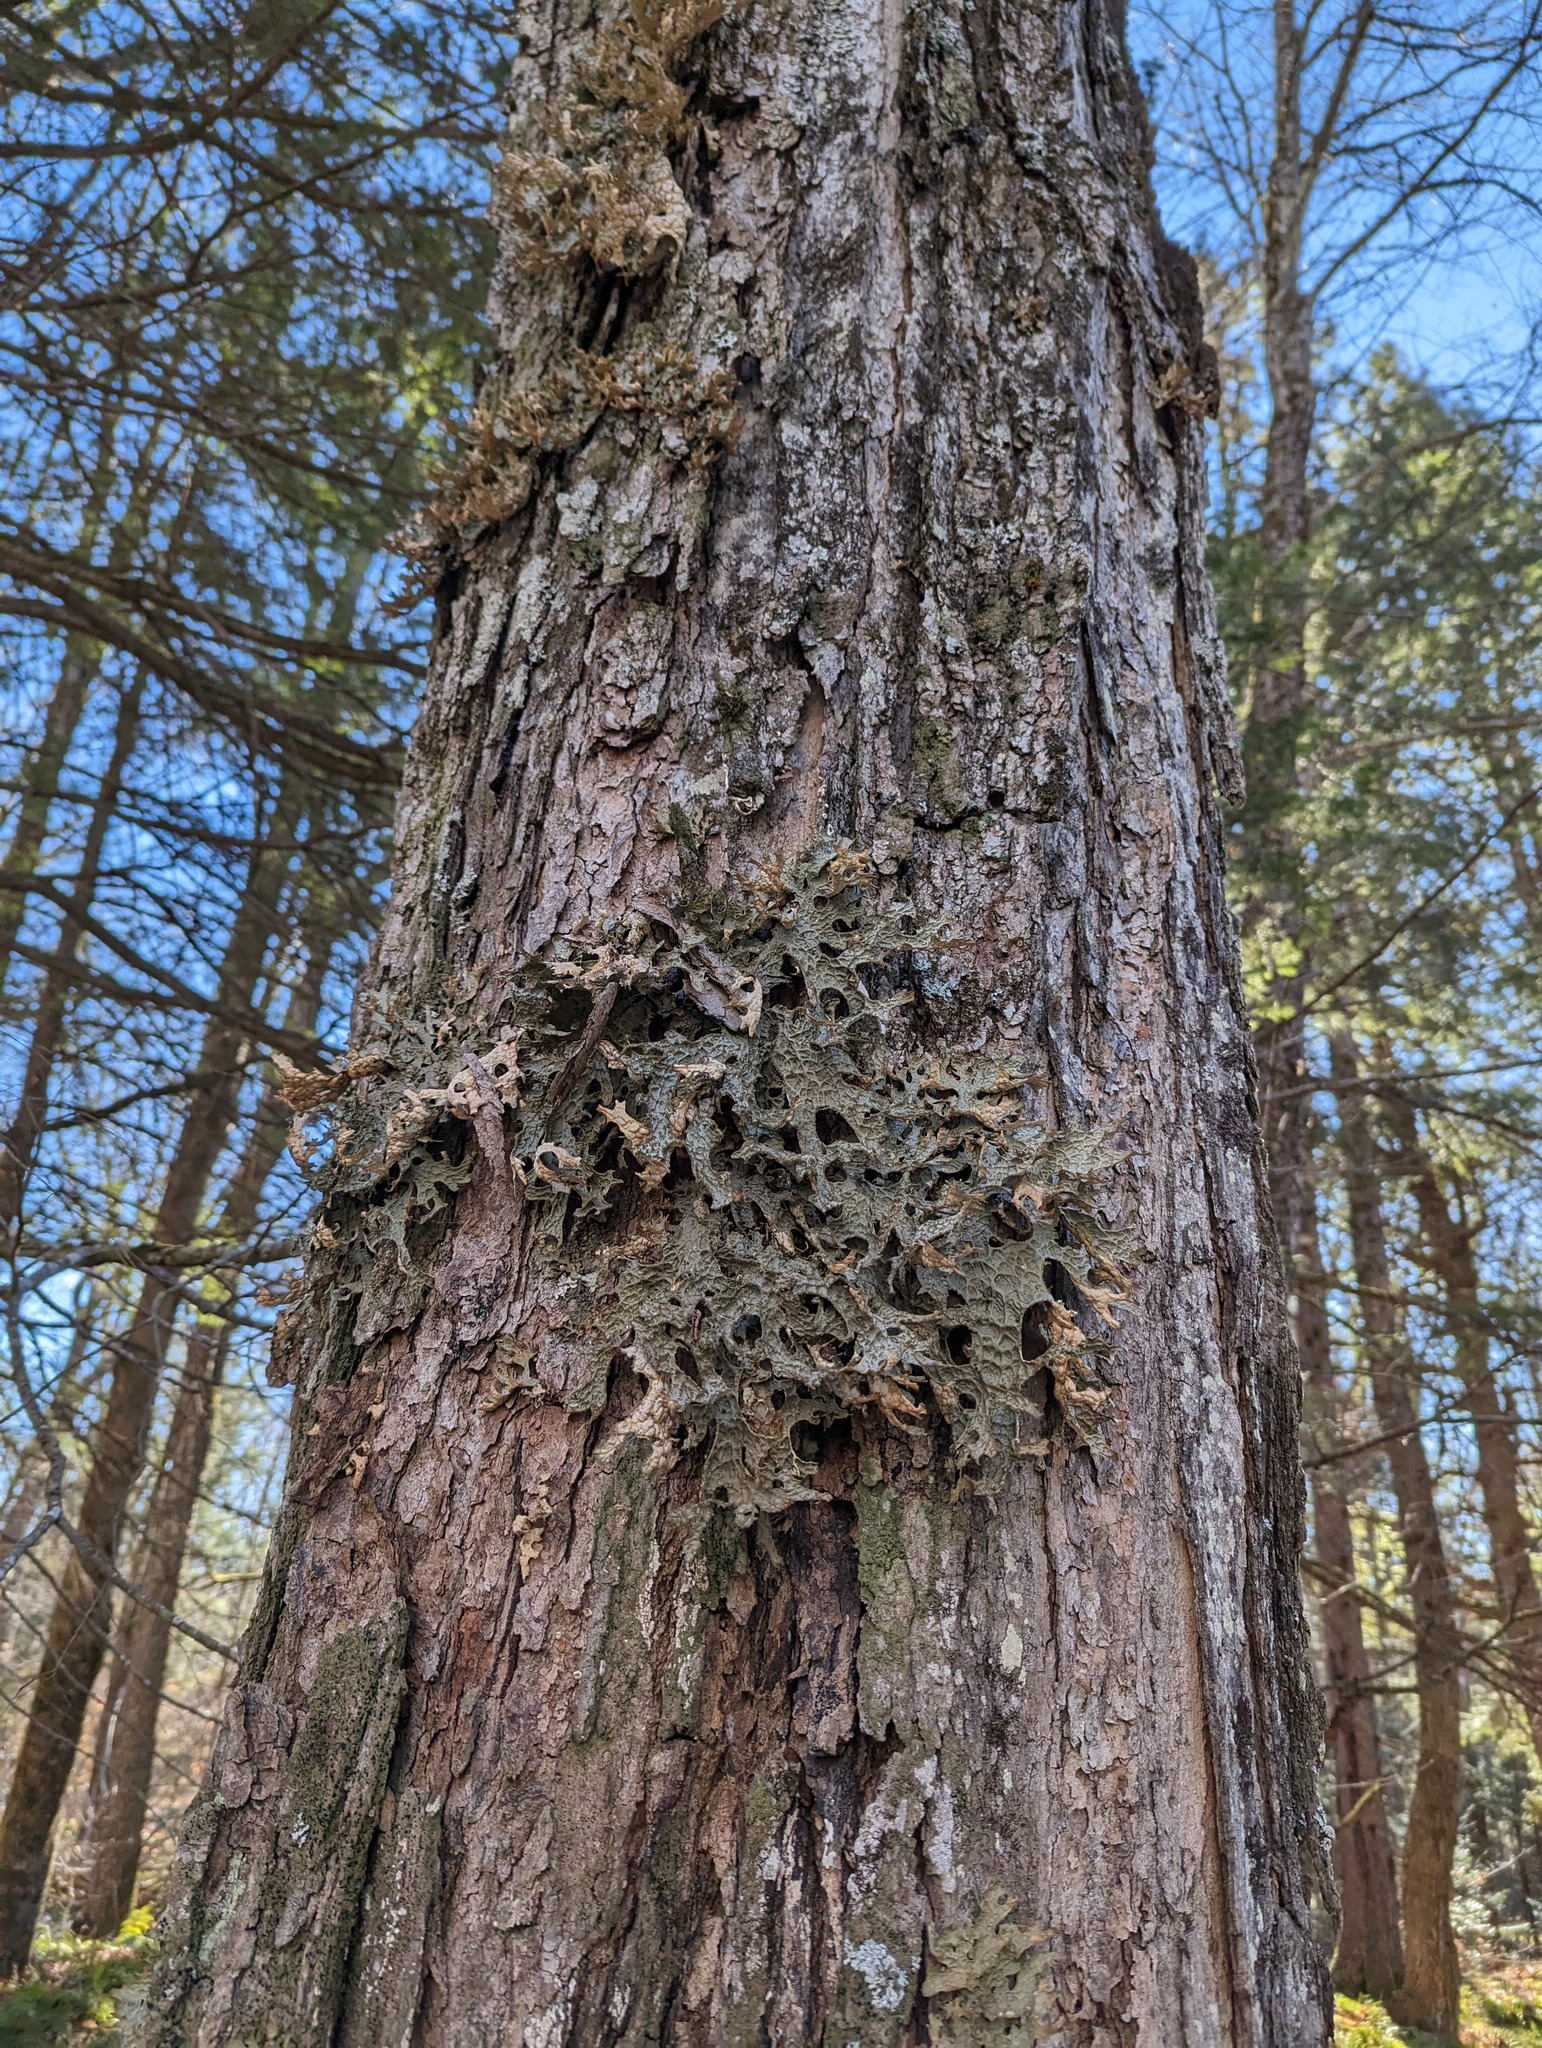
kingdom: Fungi
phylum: Ascomycota
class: Lecanoromycetes
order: Peltigerales
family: Lobariaceae
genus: Lobaria
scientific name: Lobaria pulmonaria
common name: Lungwort
